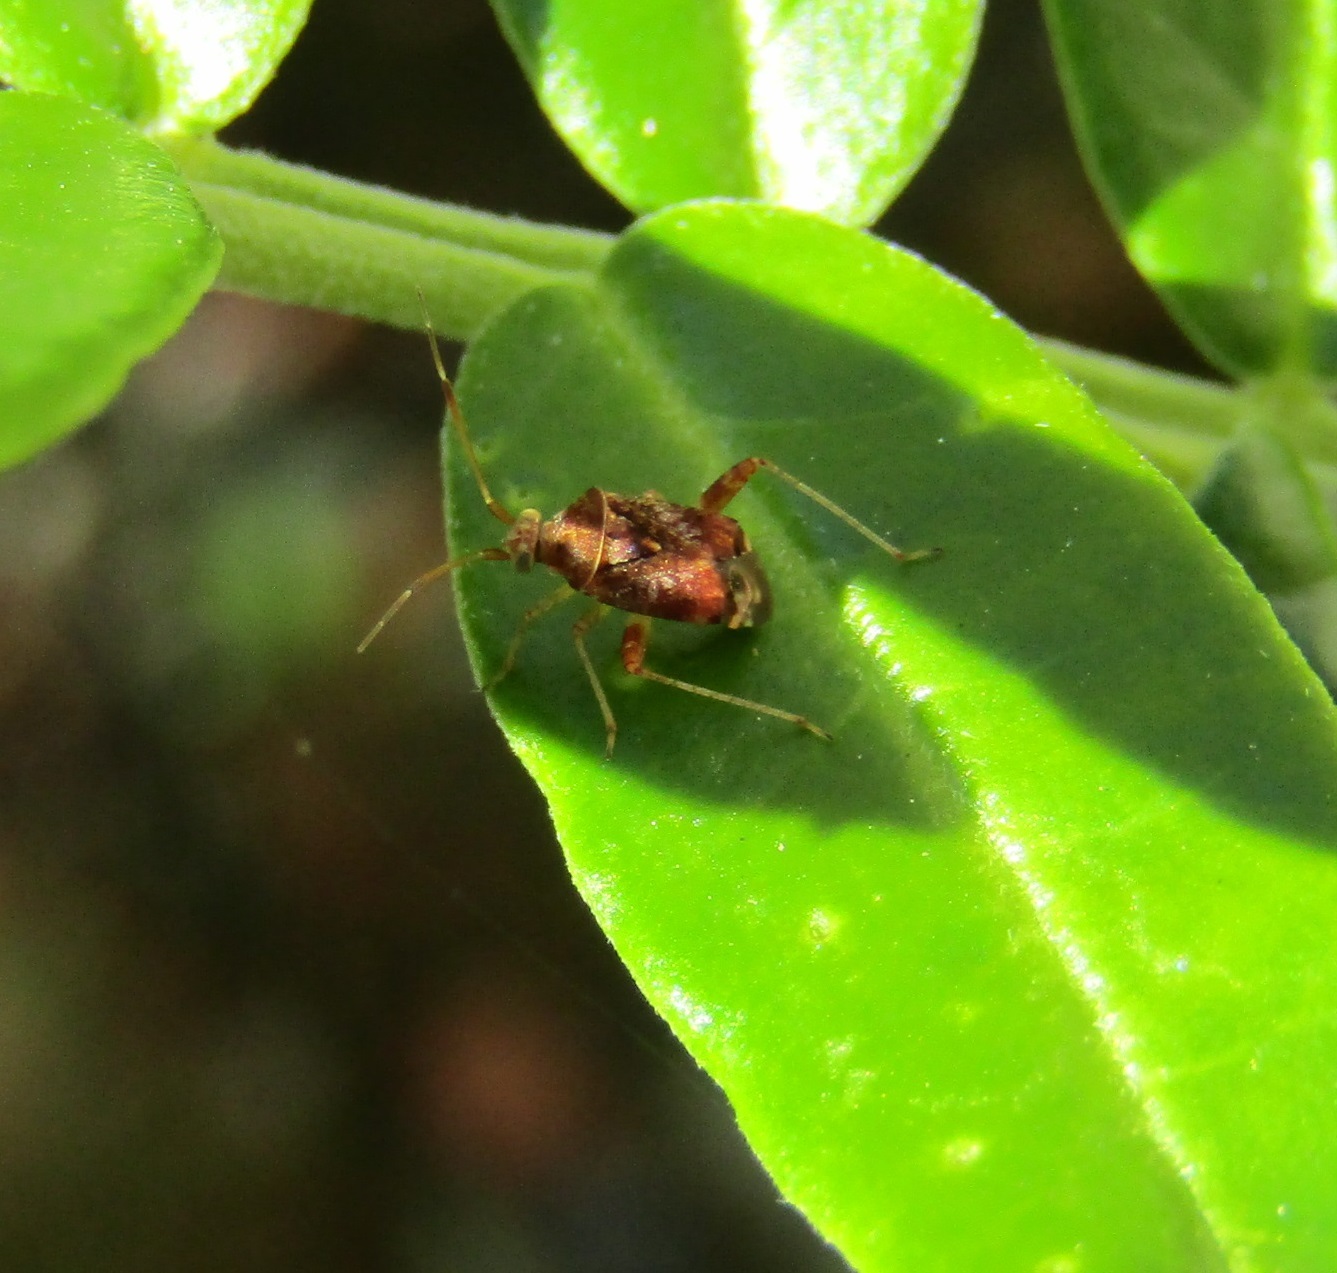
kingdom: Animalia
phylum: Arthropoda
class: Insecta
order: Hemiptera
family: Miridae
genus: Sidnia
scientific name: Sidnia kinbergi
